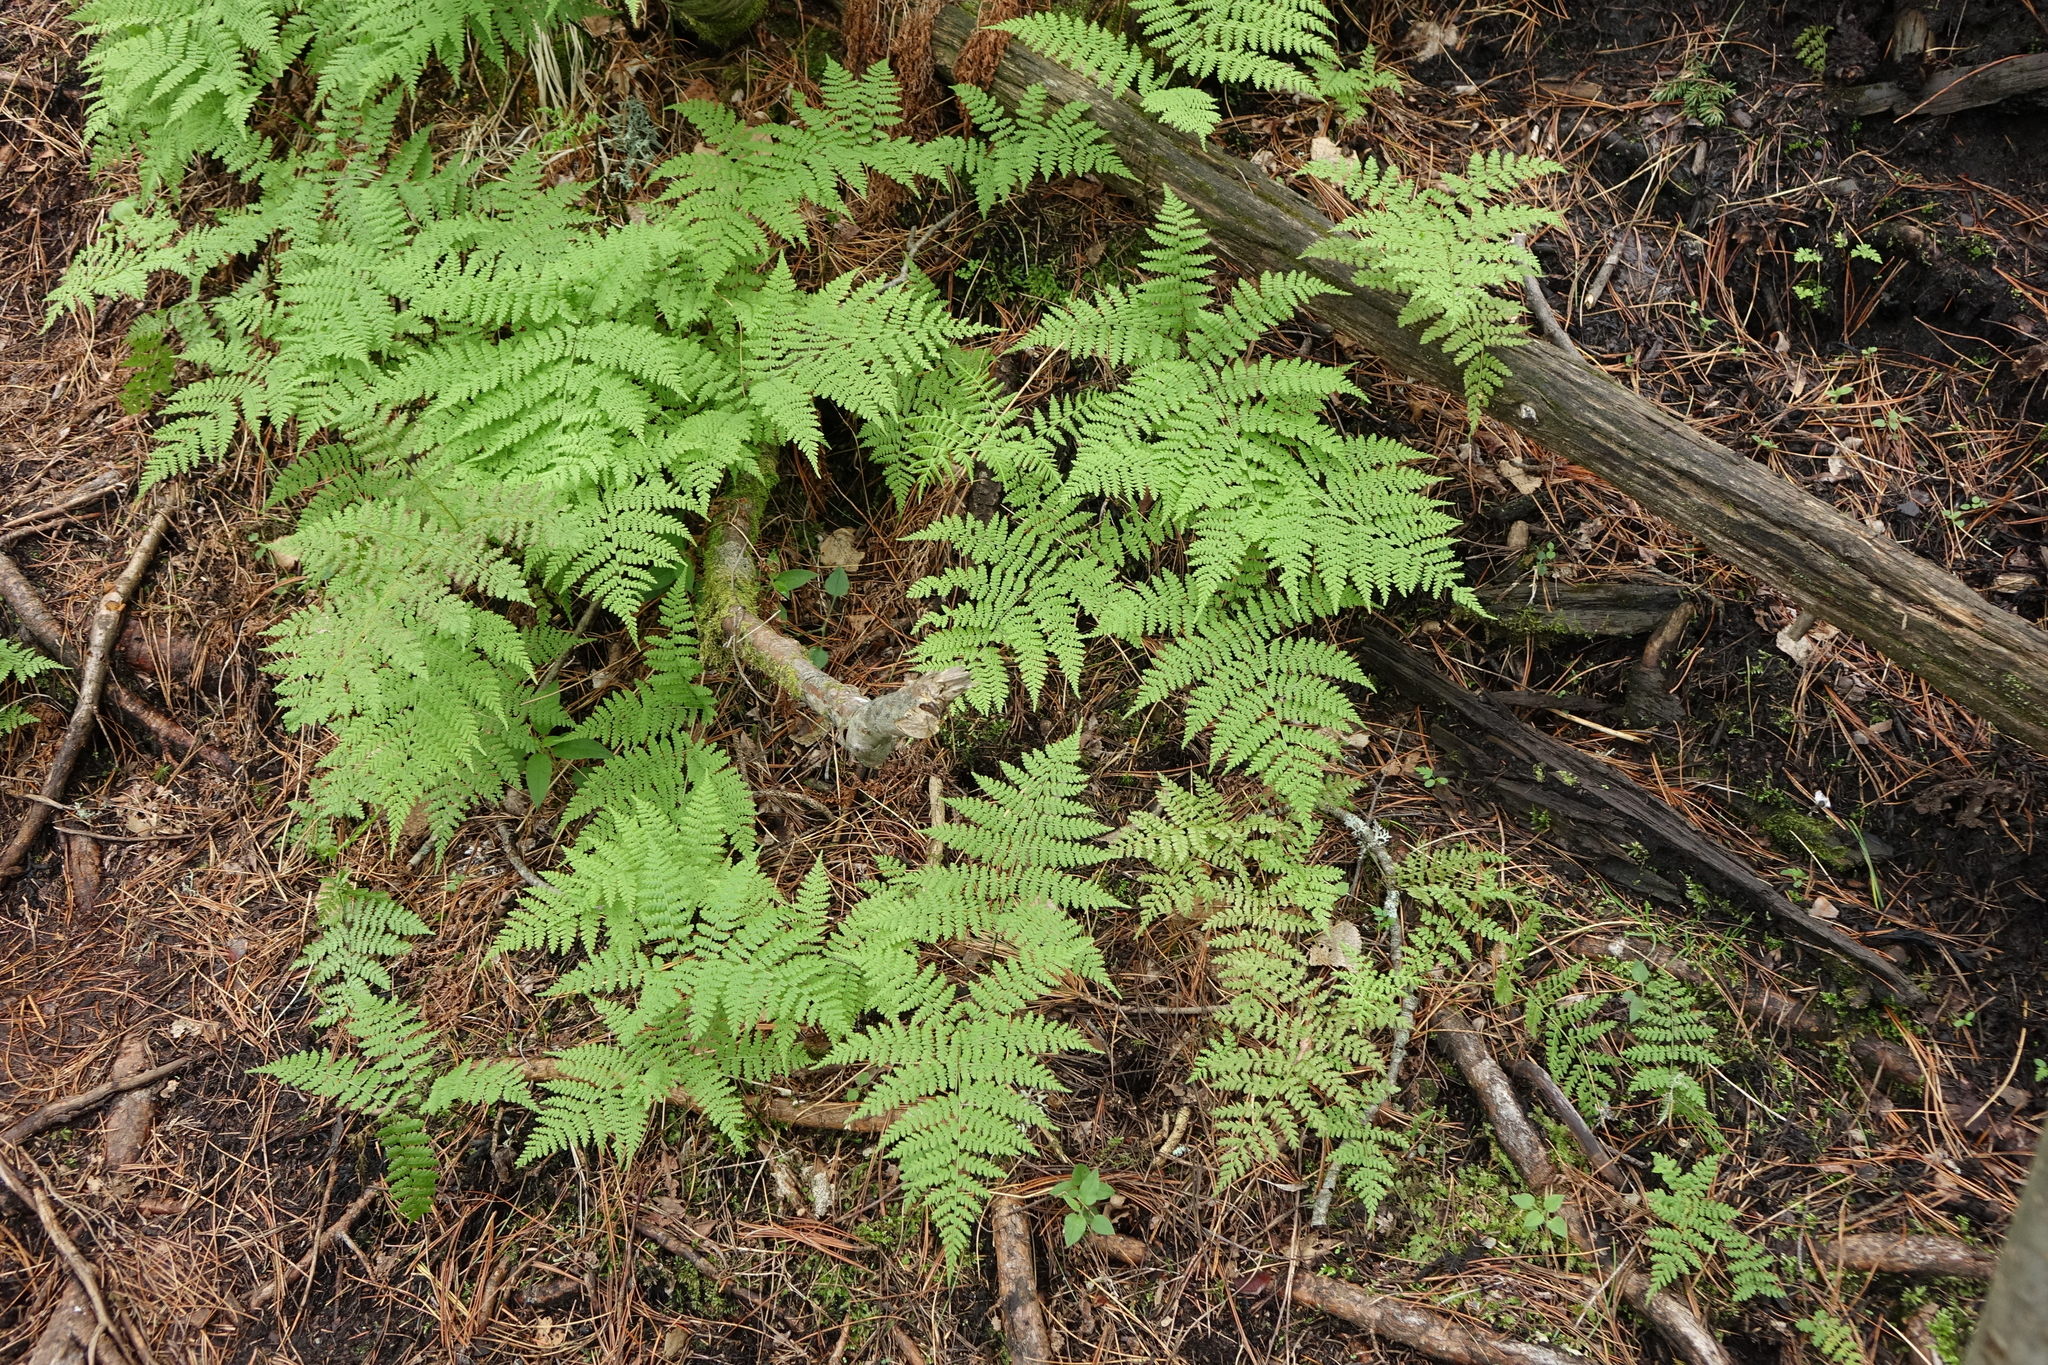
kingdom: Plantae
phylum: Tracheophyta
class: Polypodiopsida
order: Polypodiales
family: Athyriaceae
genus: Diplazium
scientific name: Diplazium sibiricum
